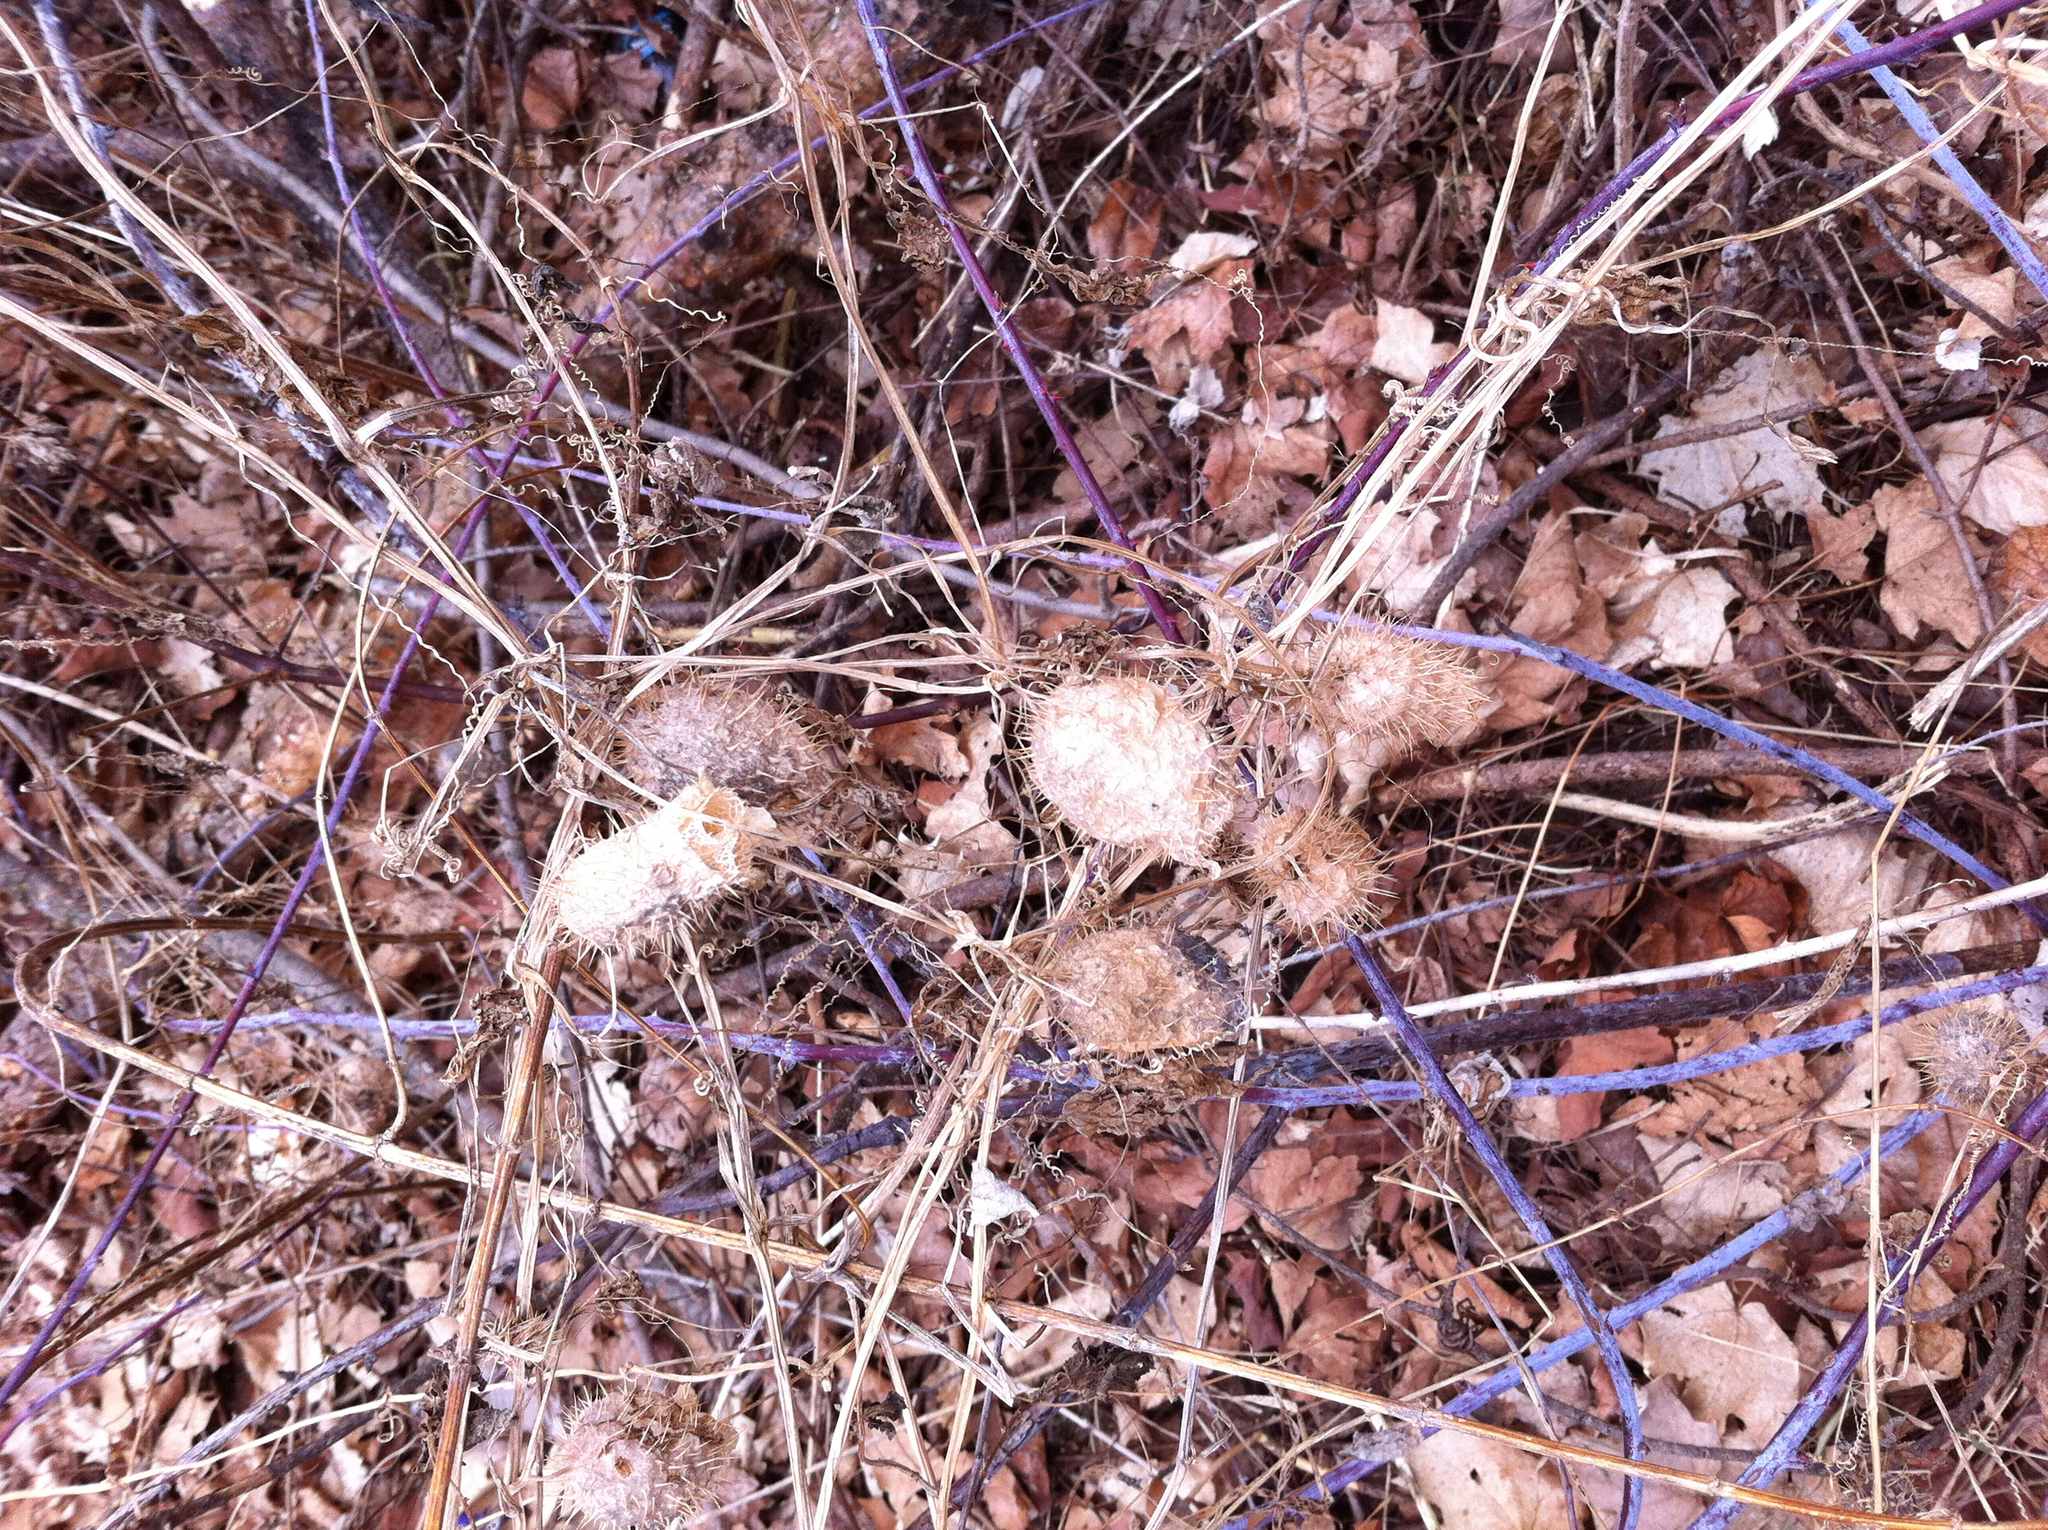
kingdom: Plantae
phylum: Tracheophyta
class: Magnoliopsida
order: Cucurbitales
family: Cucurbitaceae
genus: Echinocystis
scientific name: Echinocystis lobata
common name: Wild cucumber
